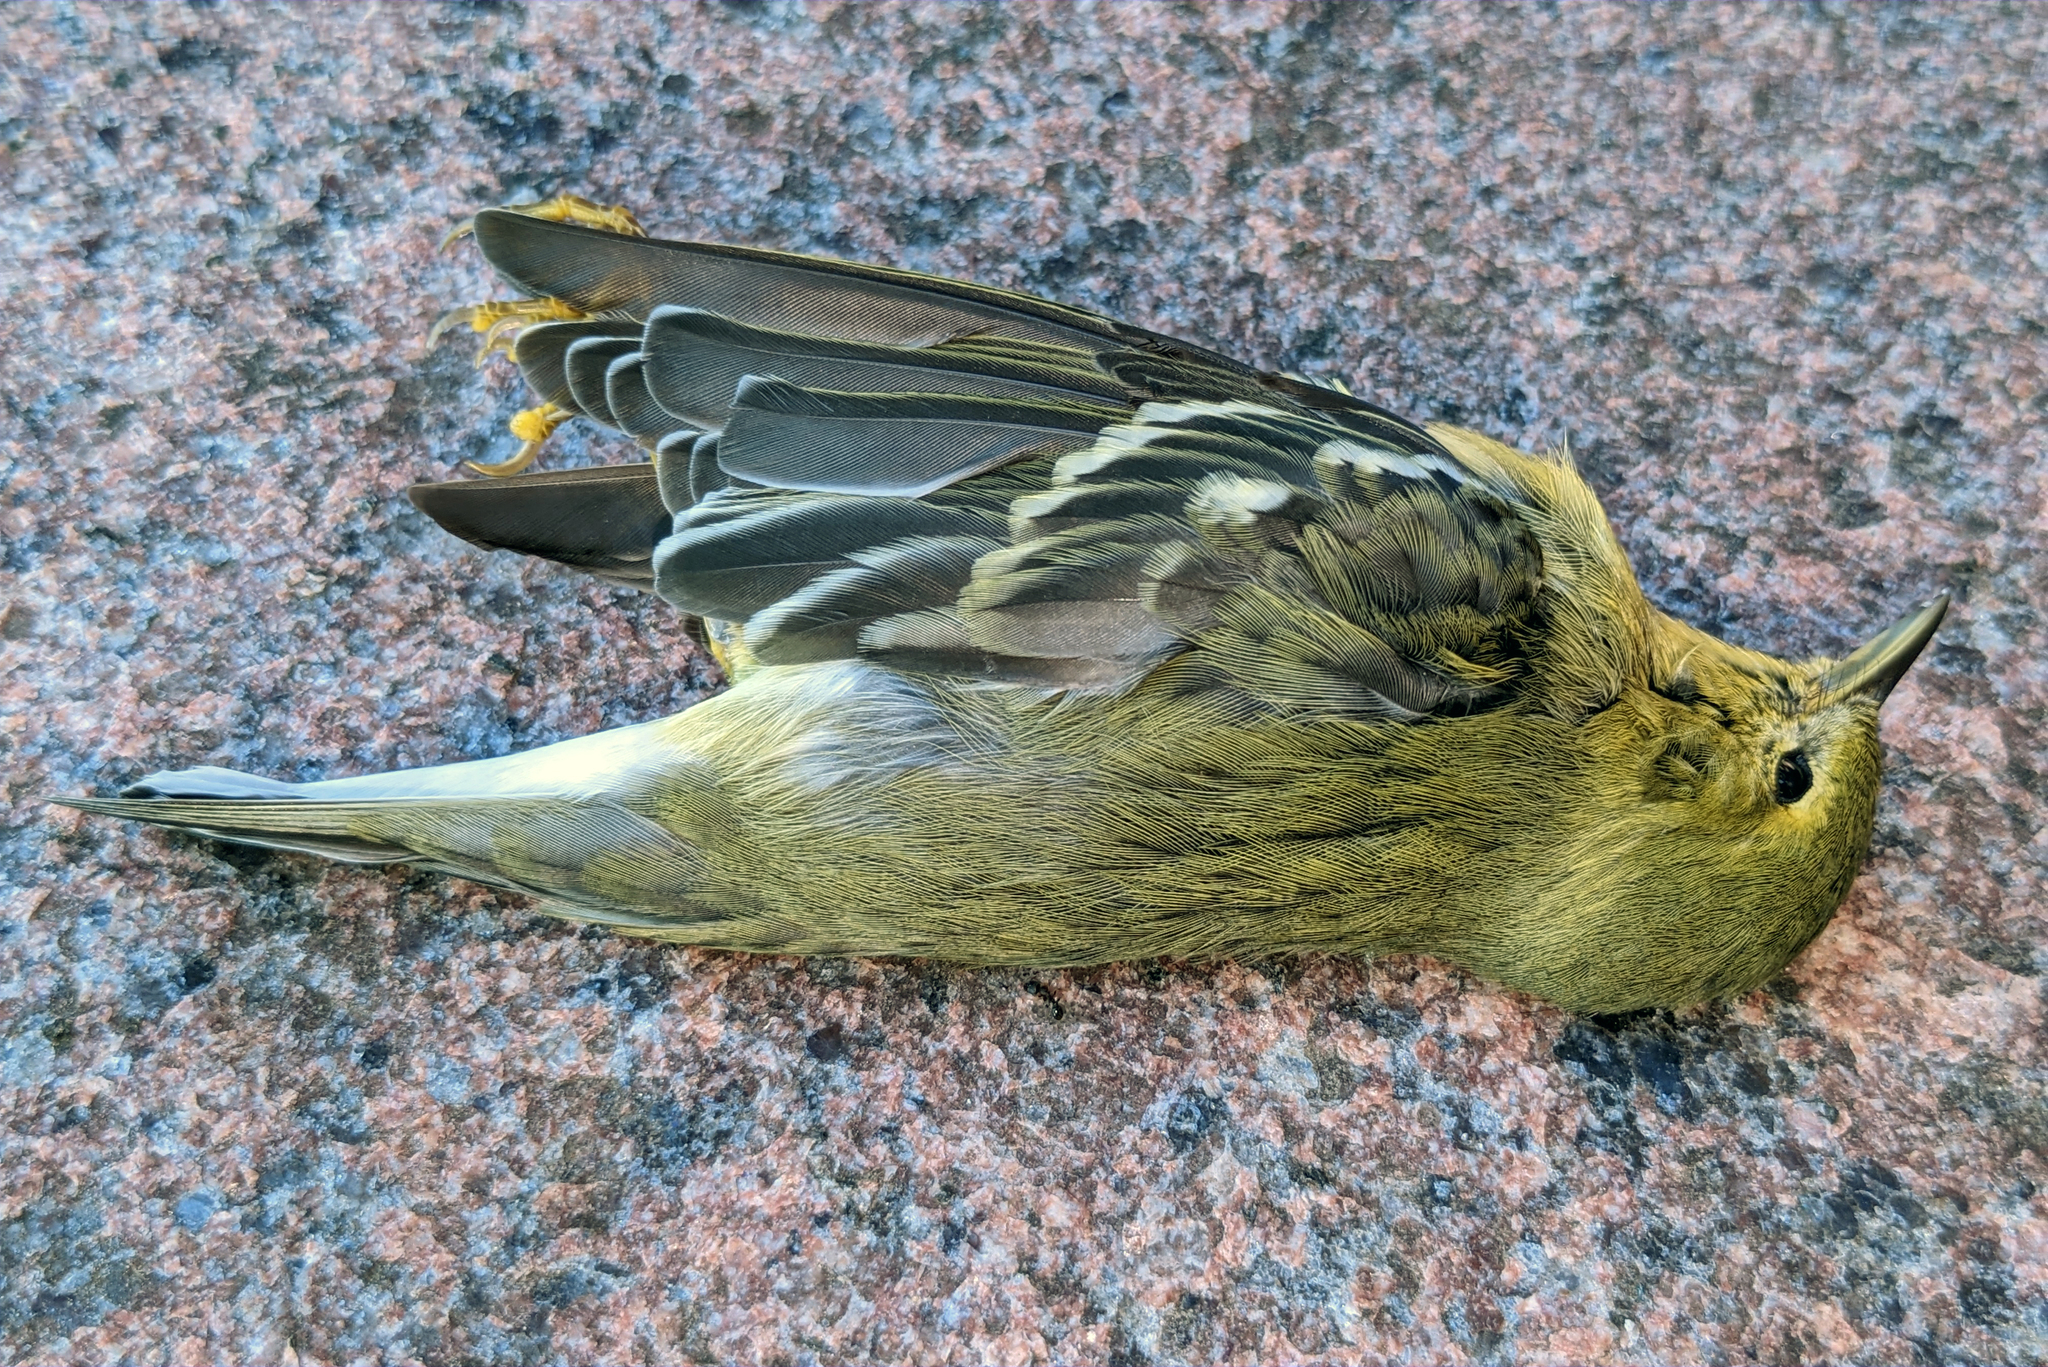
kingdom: Animalia
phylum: Chordata
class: Aves
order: Passeriformes
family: Parulidae
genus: Setophaga
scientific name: Setophaga striata
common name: Blackpoll warbler
